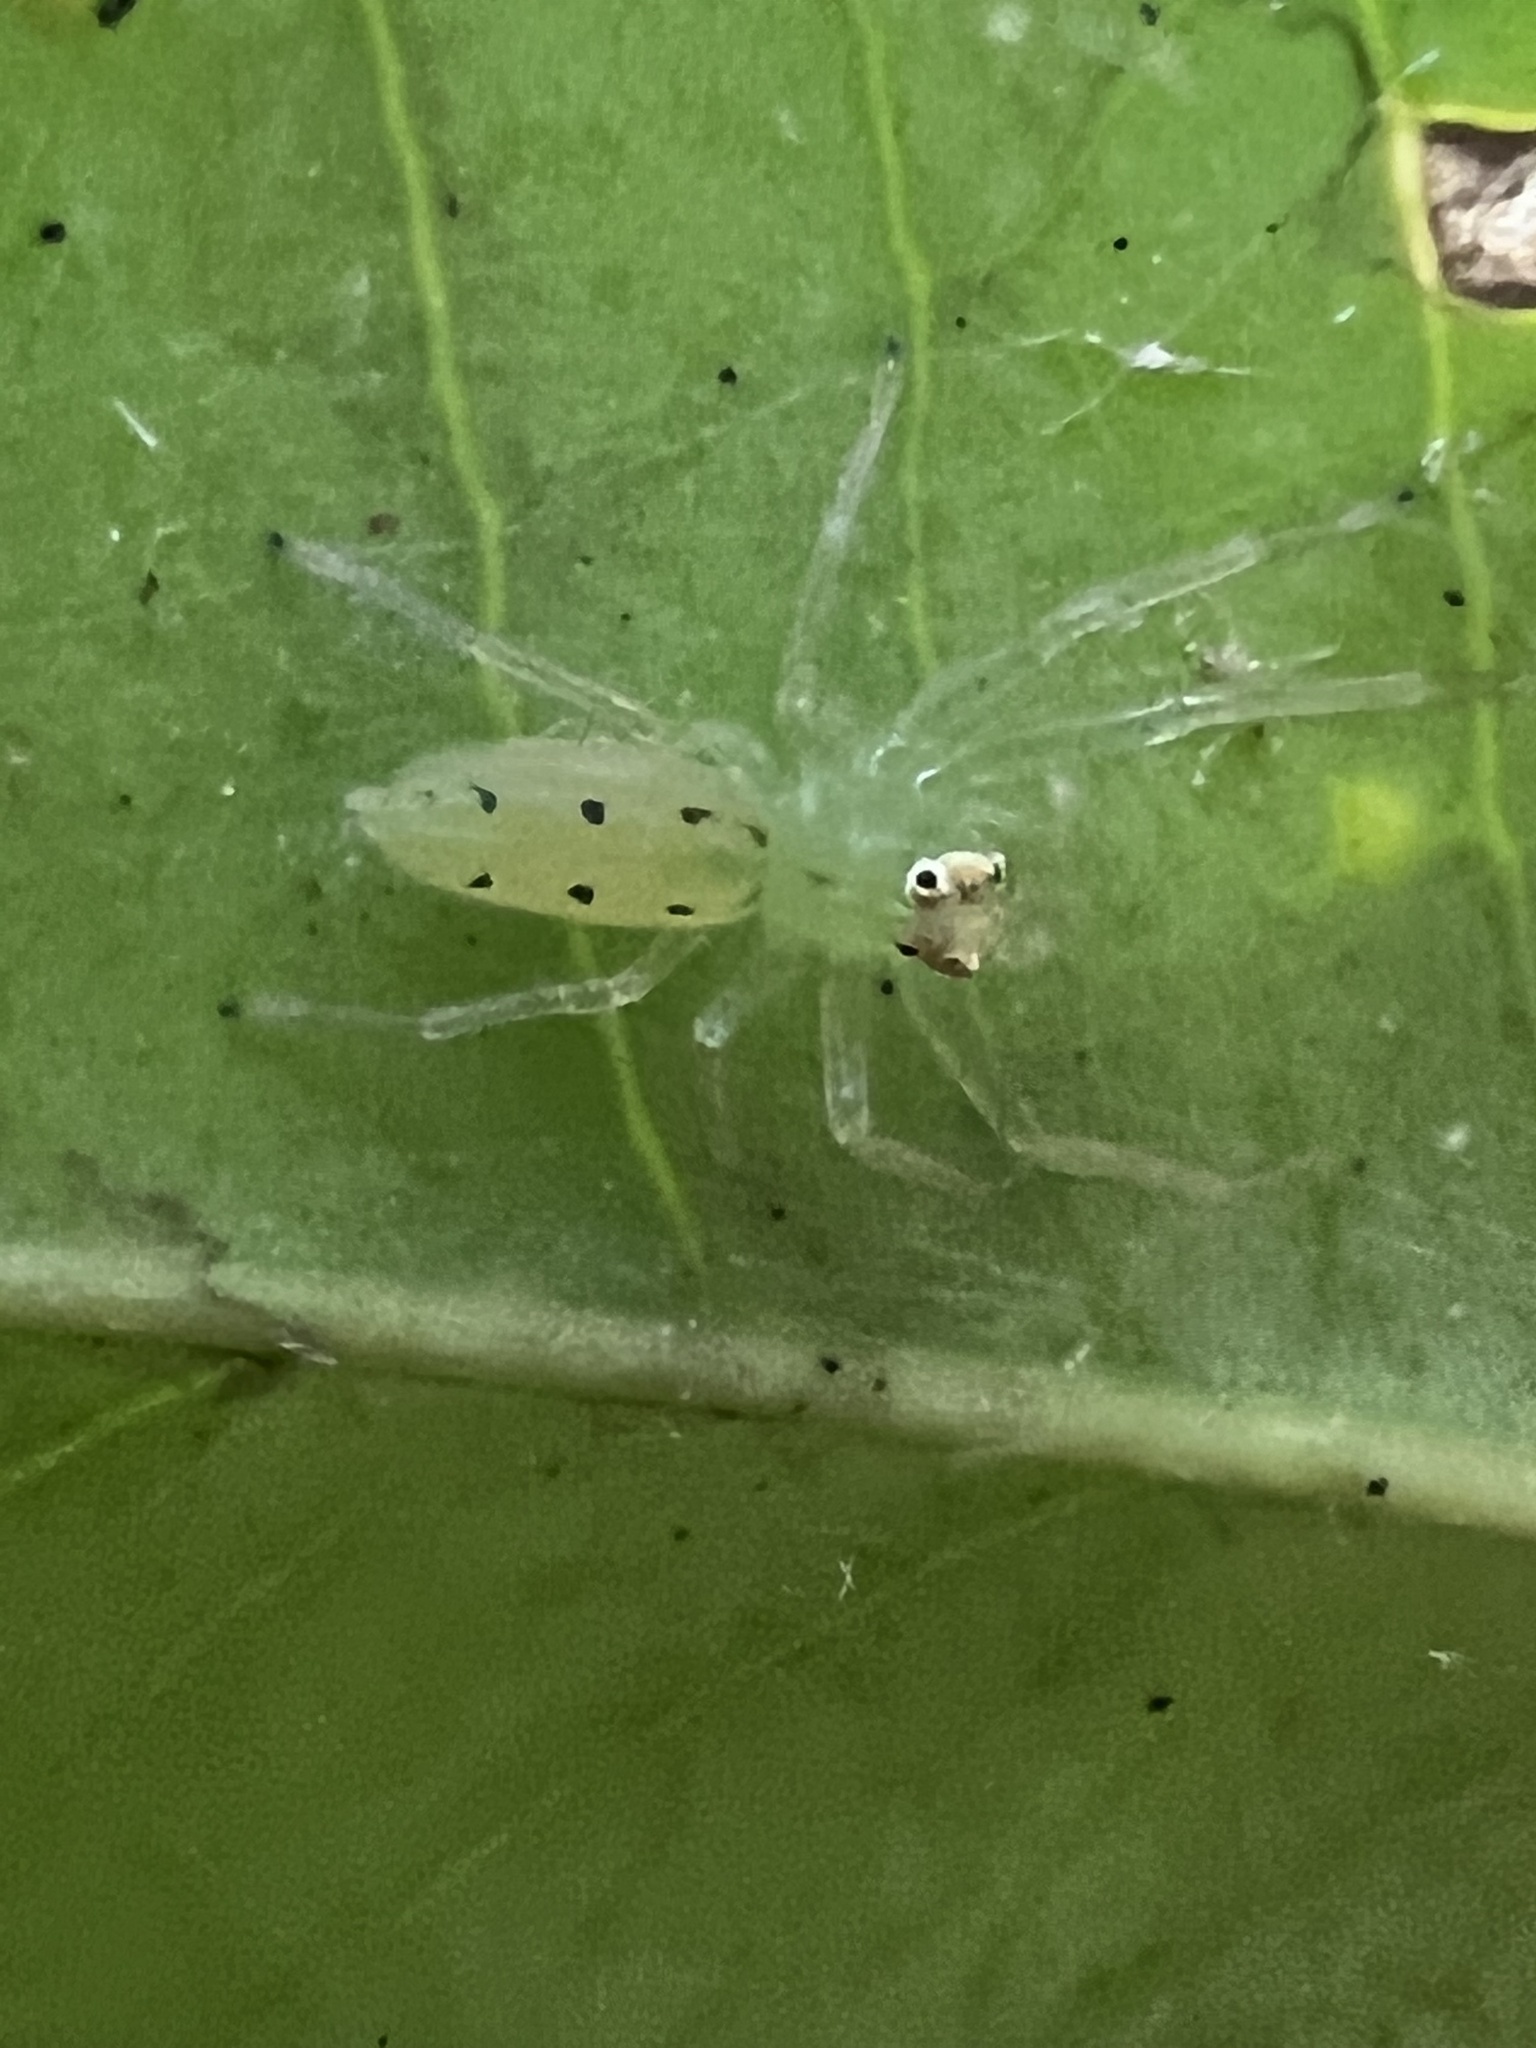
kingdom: Animalia
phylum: Arthropoda
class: Arachnida
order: Araneae
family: Salticidae
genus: Lyssomanes
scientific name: Lyssomanes viridis
